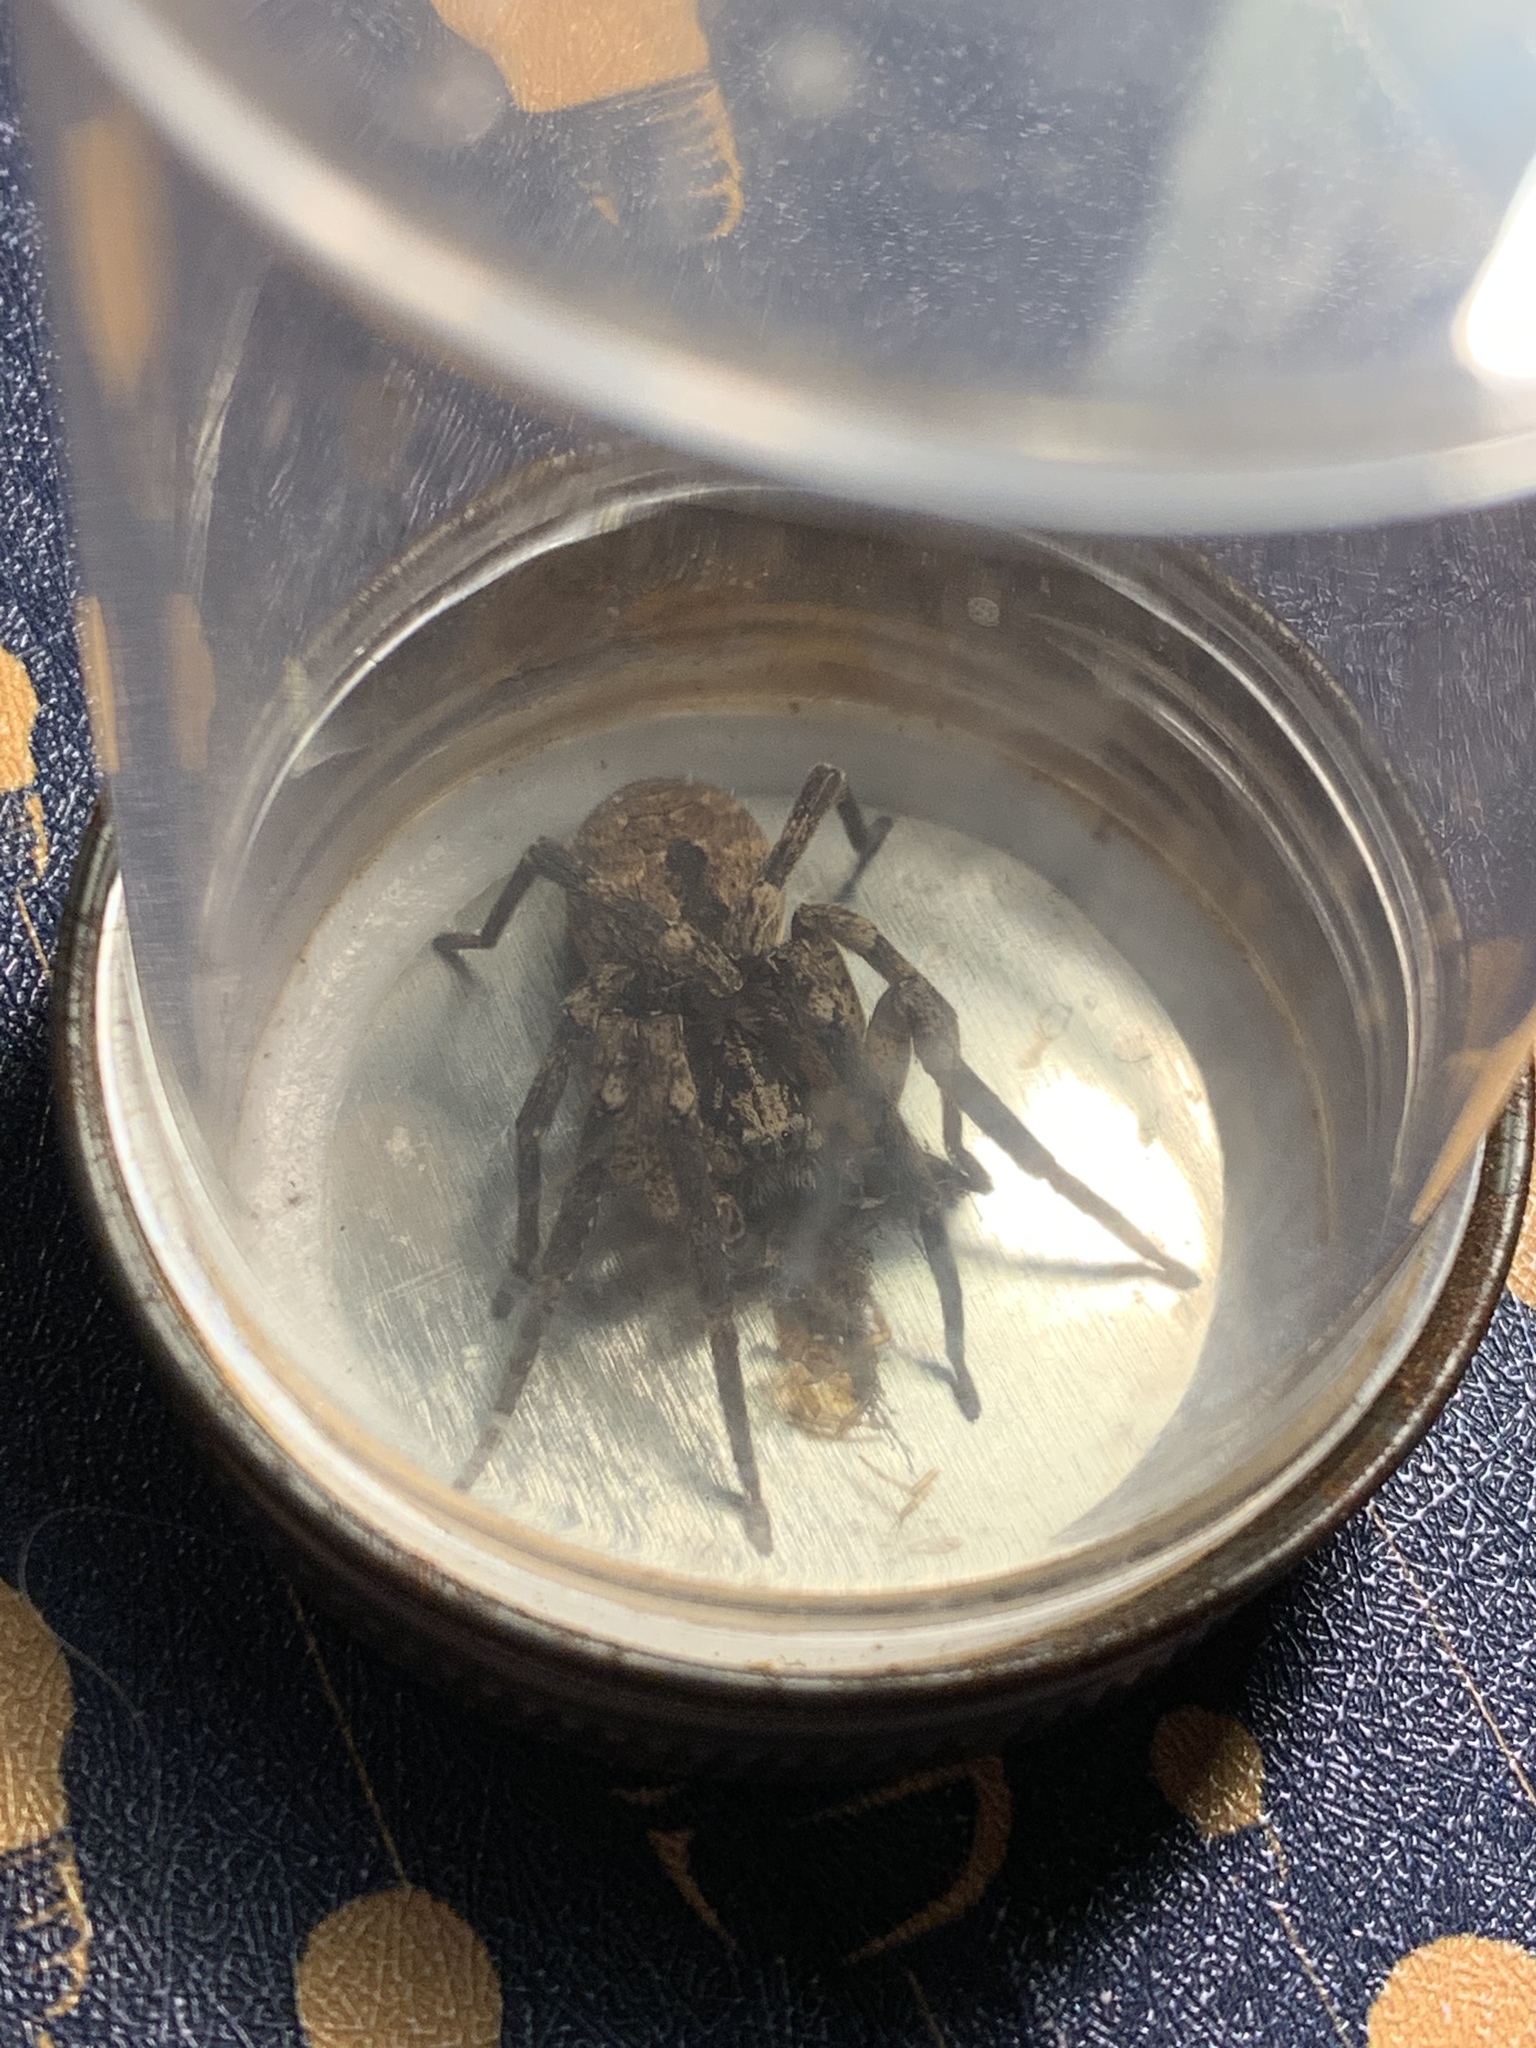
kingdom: Animalia
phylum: Arthropoda
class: Arachnida
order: Araneae
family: Zoropsidae
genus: Zoropsis
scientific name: Zoropsis spinimana
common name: Zoropsid spider
